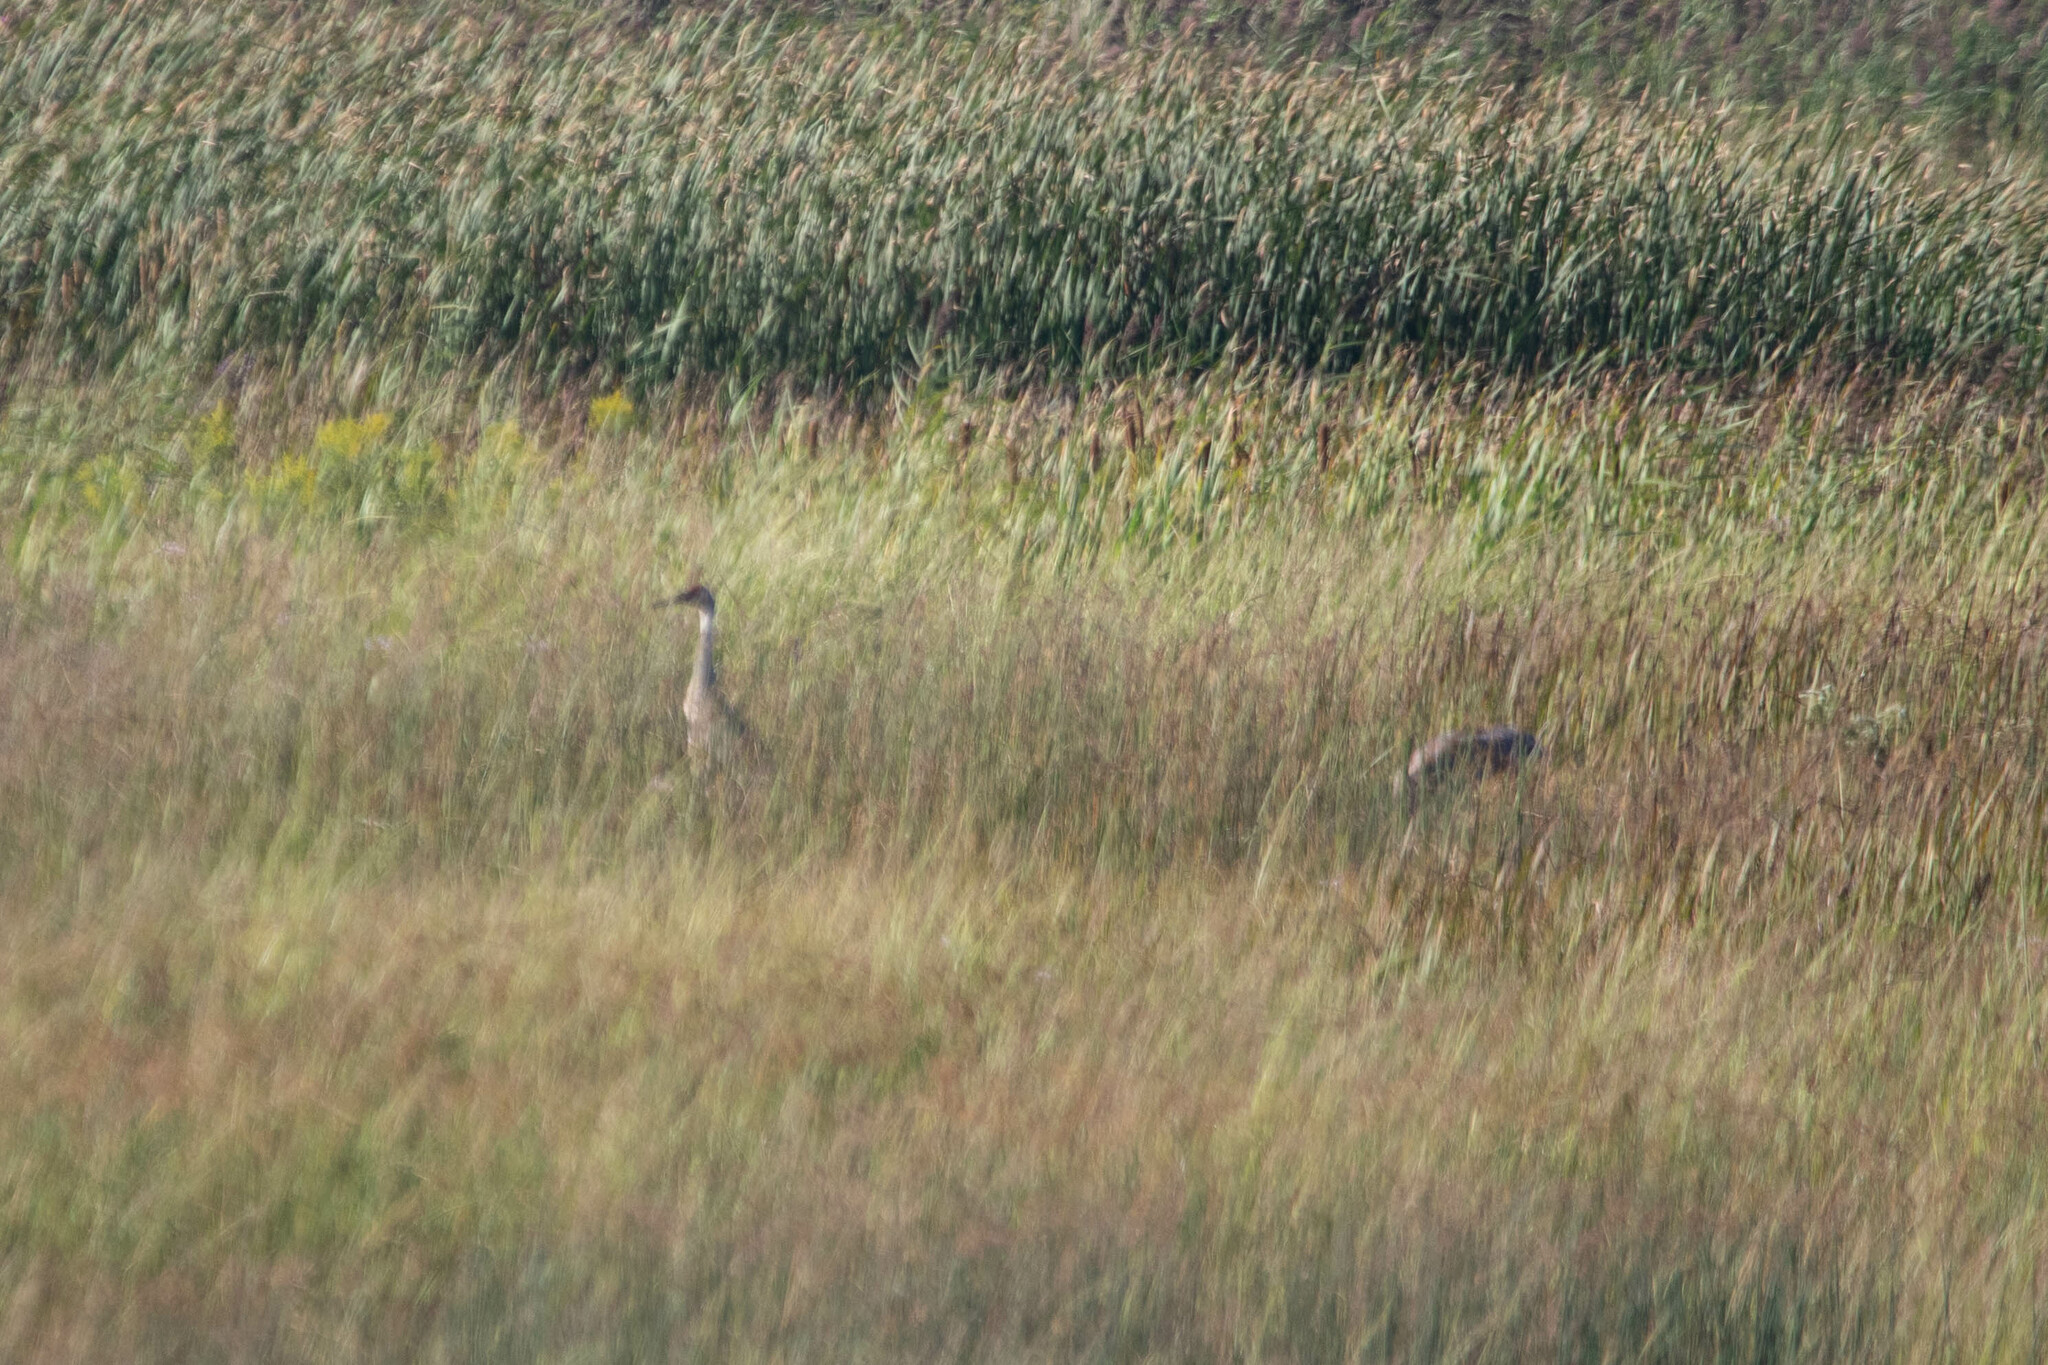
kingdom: Animalia
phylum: Chordata
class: Aves
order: Gruiformes
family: Gruidae
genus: Grus
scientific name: Grus canadensis
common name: Sandhill crane
